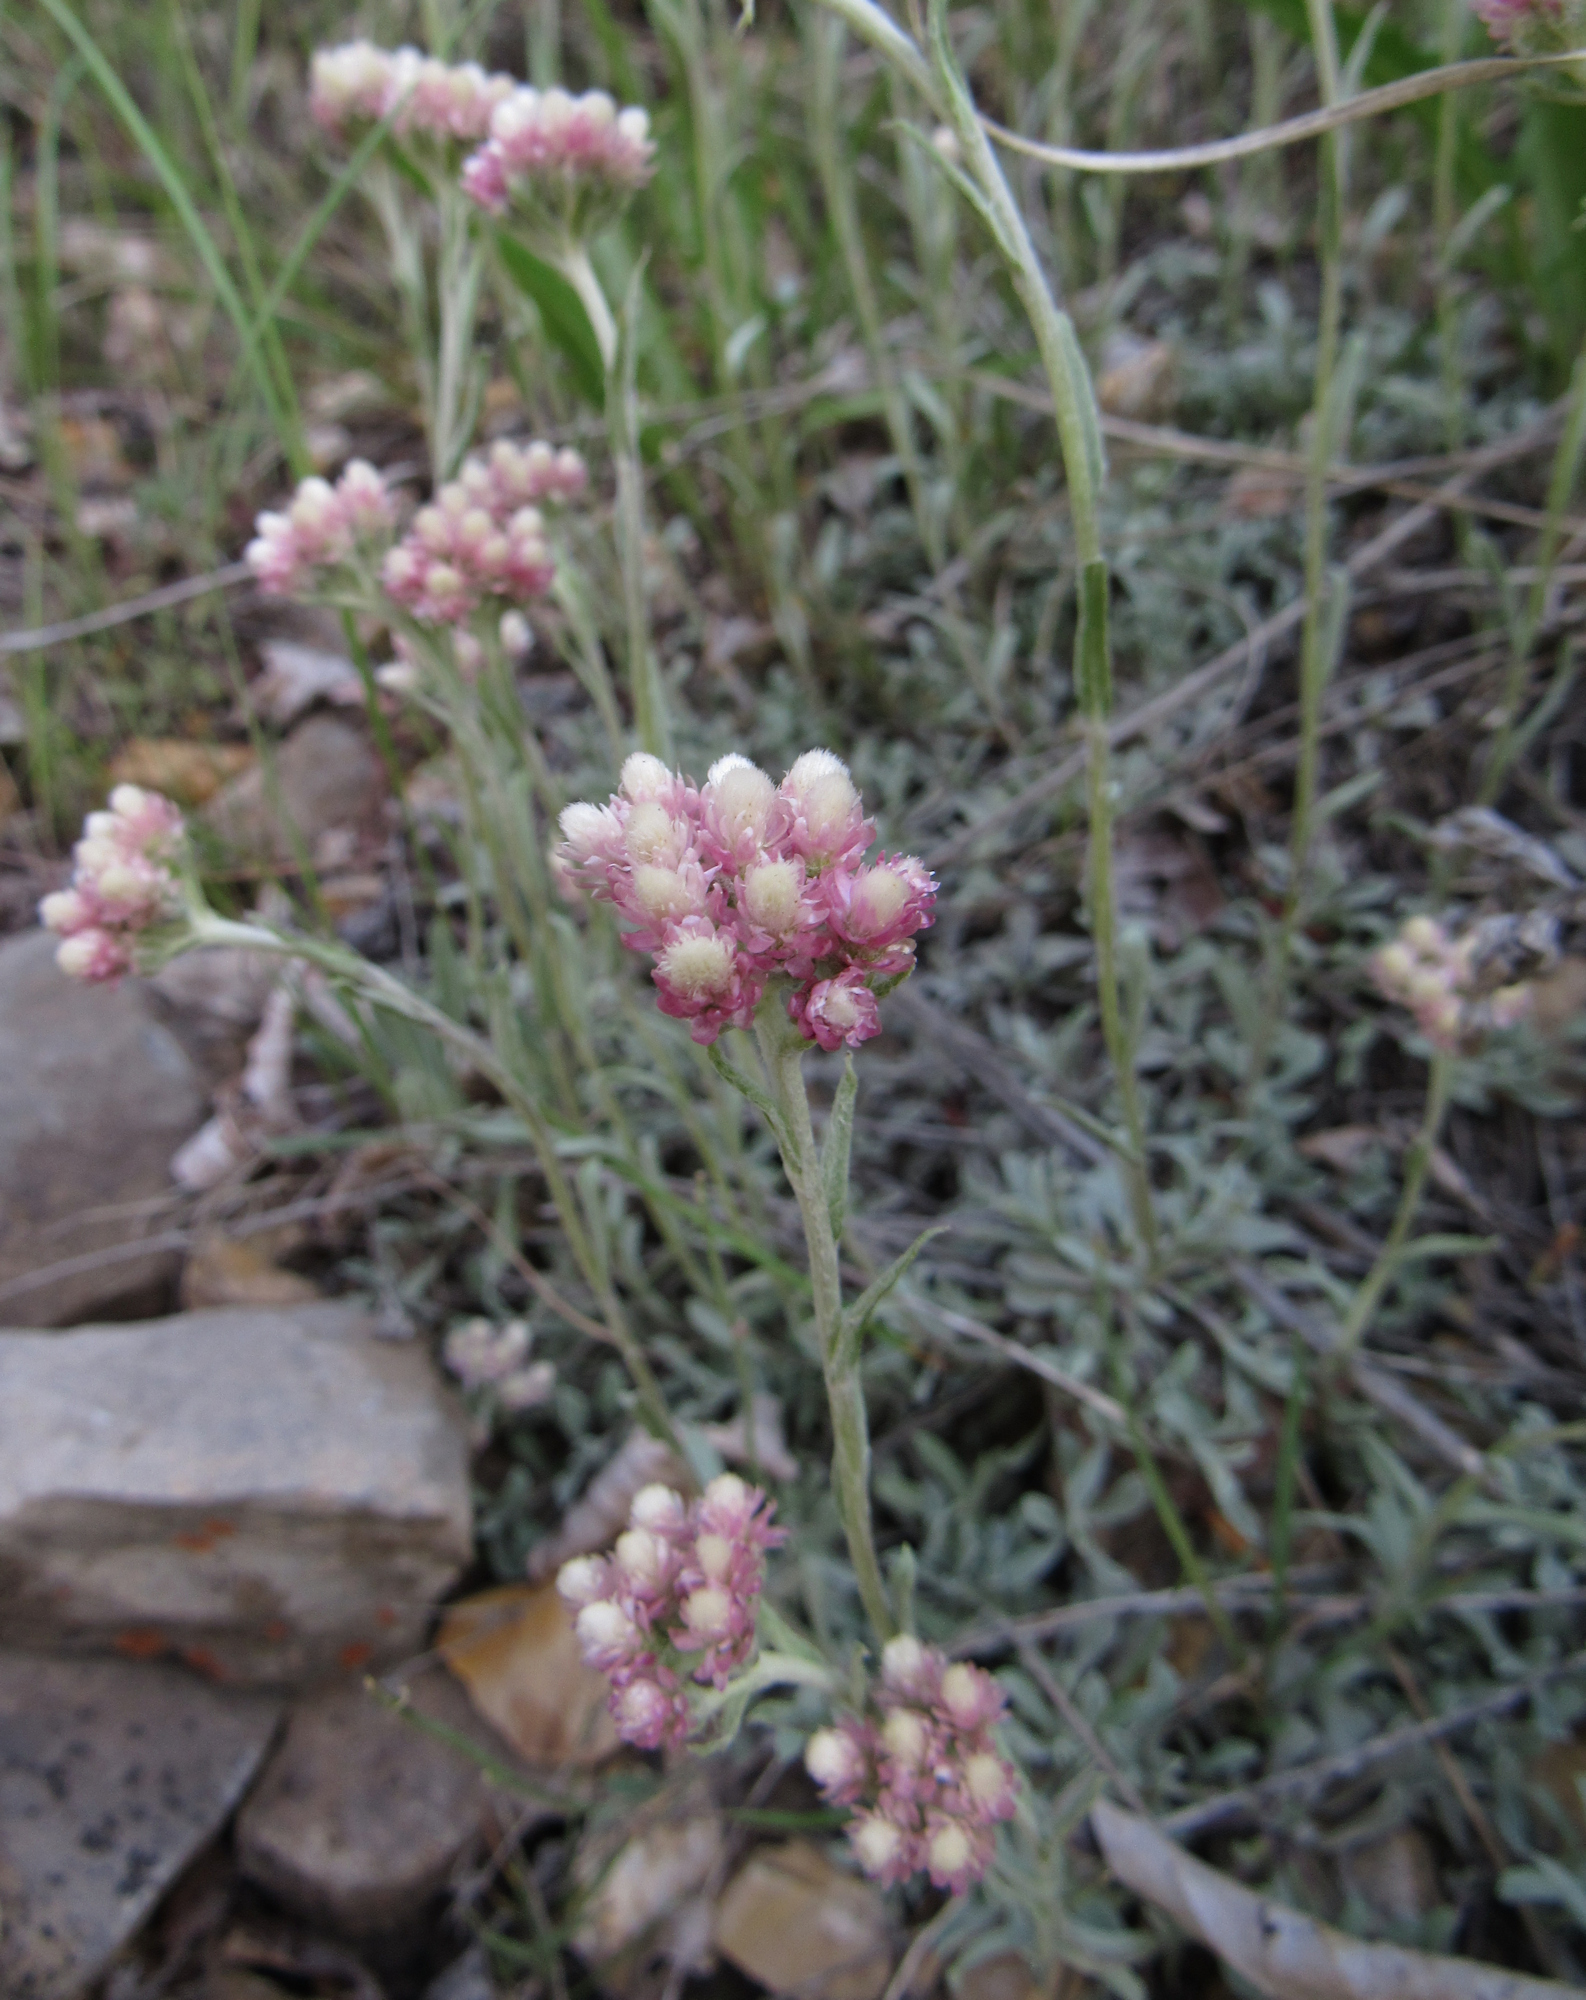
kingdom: Plantae
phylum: Tracheophyta
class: Magnoliopsida
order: Asterales
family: Asteraceae
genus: Antennaria
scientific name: Antennaria rosea
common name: Rosy pussytoes
